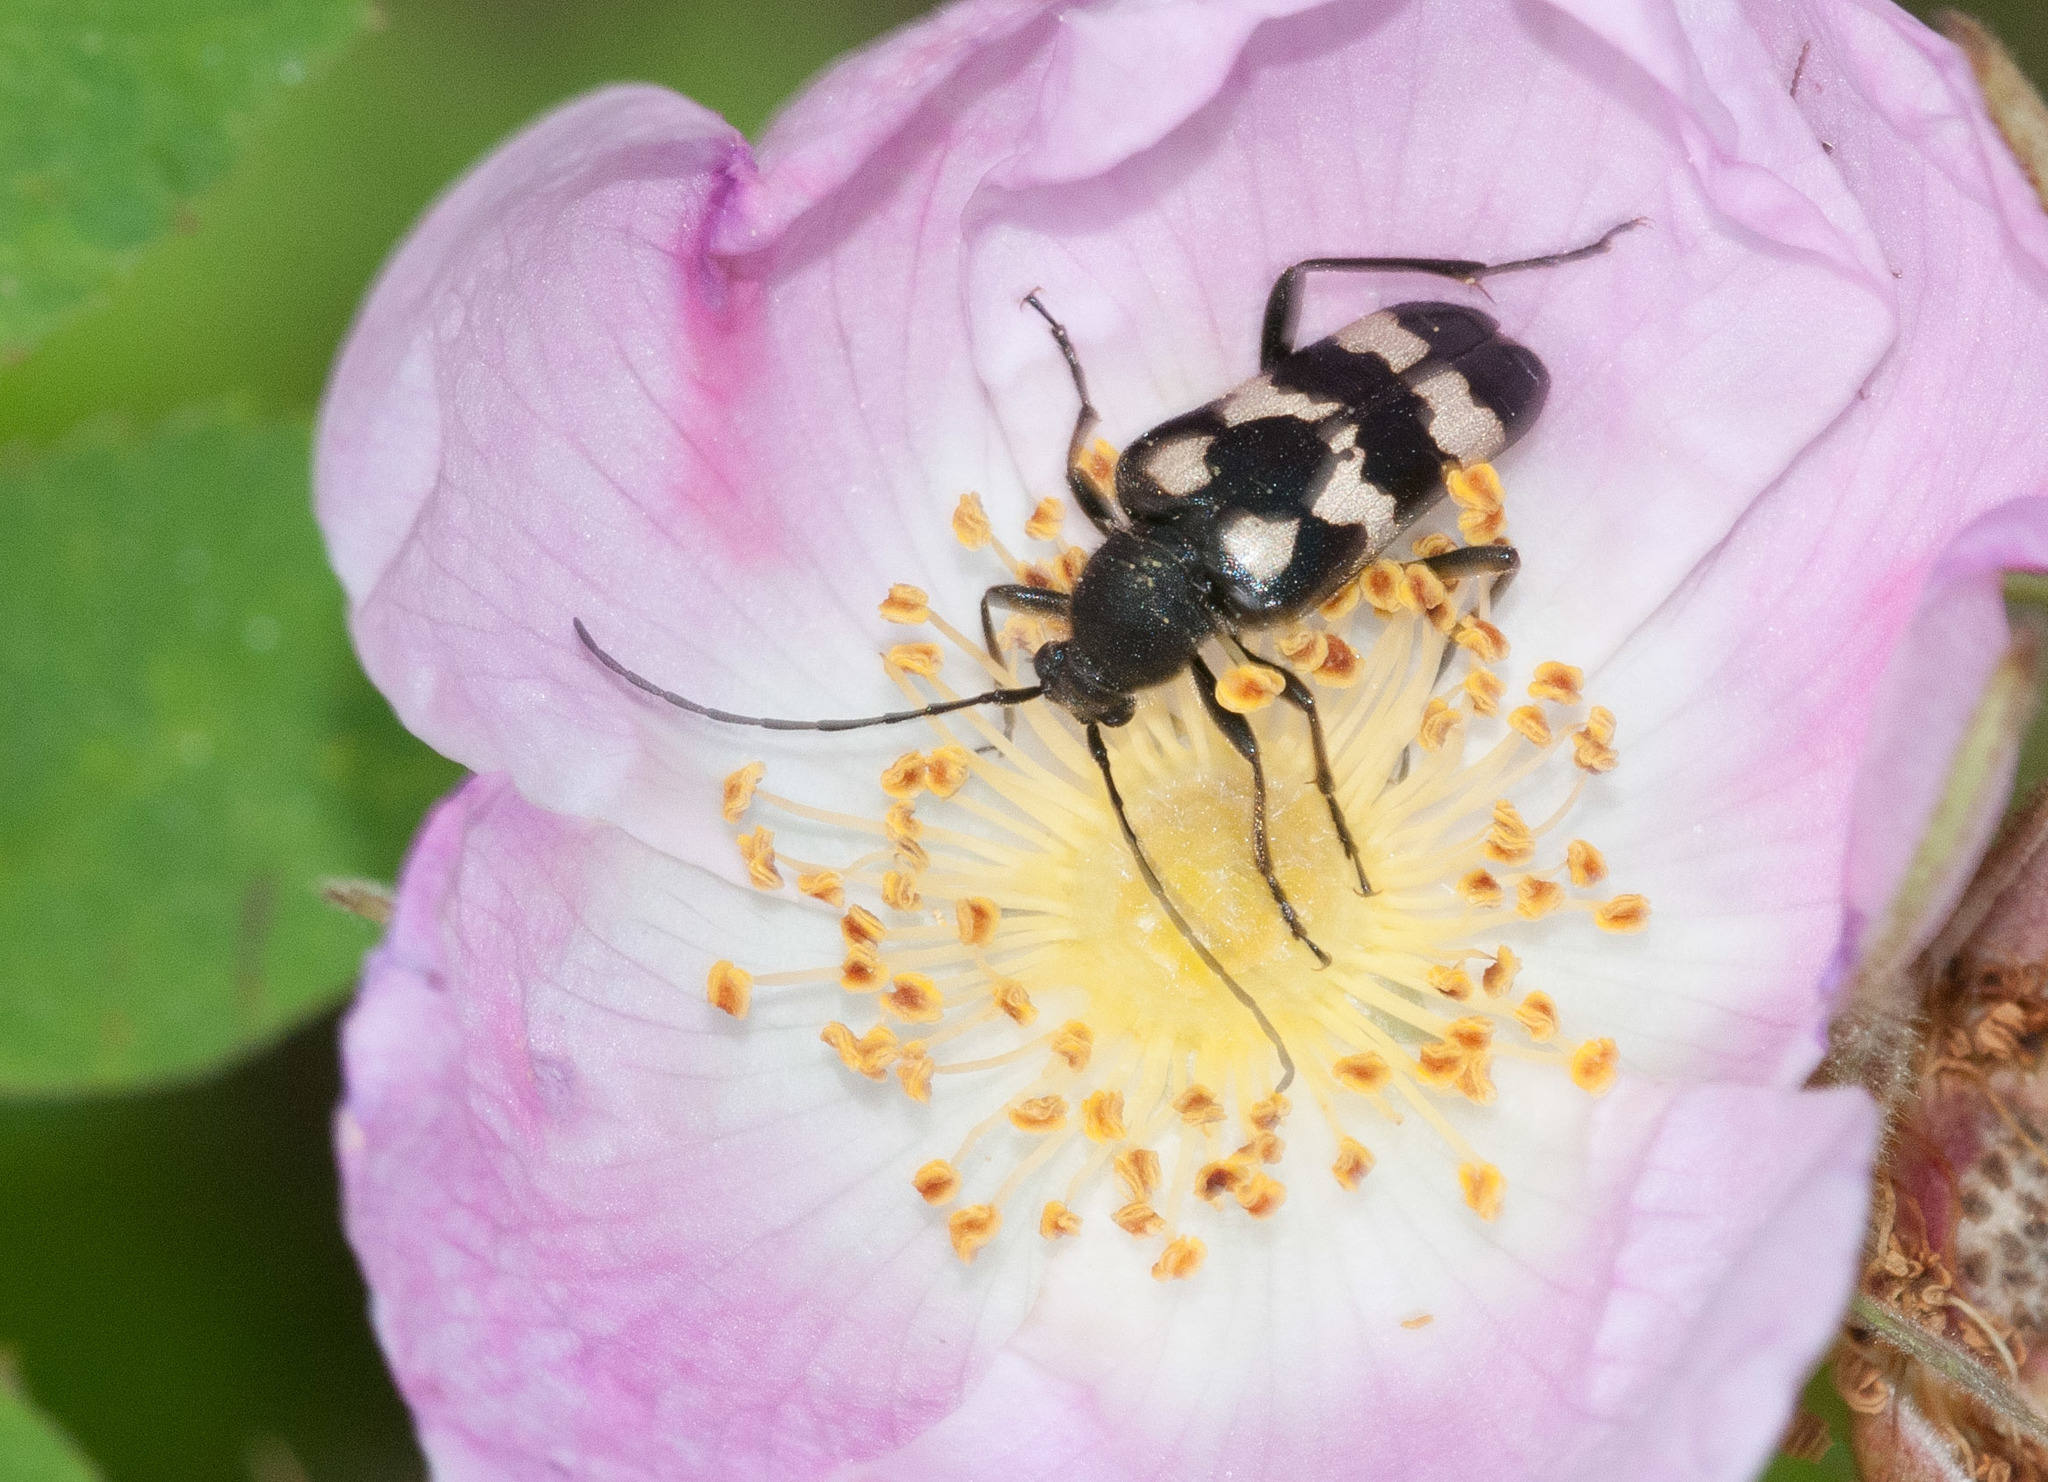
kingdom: Animalia
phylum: Arthropoda
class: Insecta
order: Coleoptera
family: Cerambycidae
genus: Judolia
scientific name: Judolia montivagans
